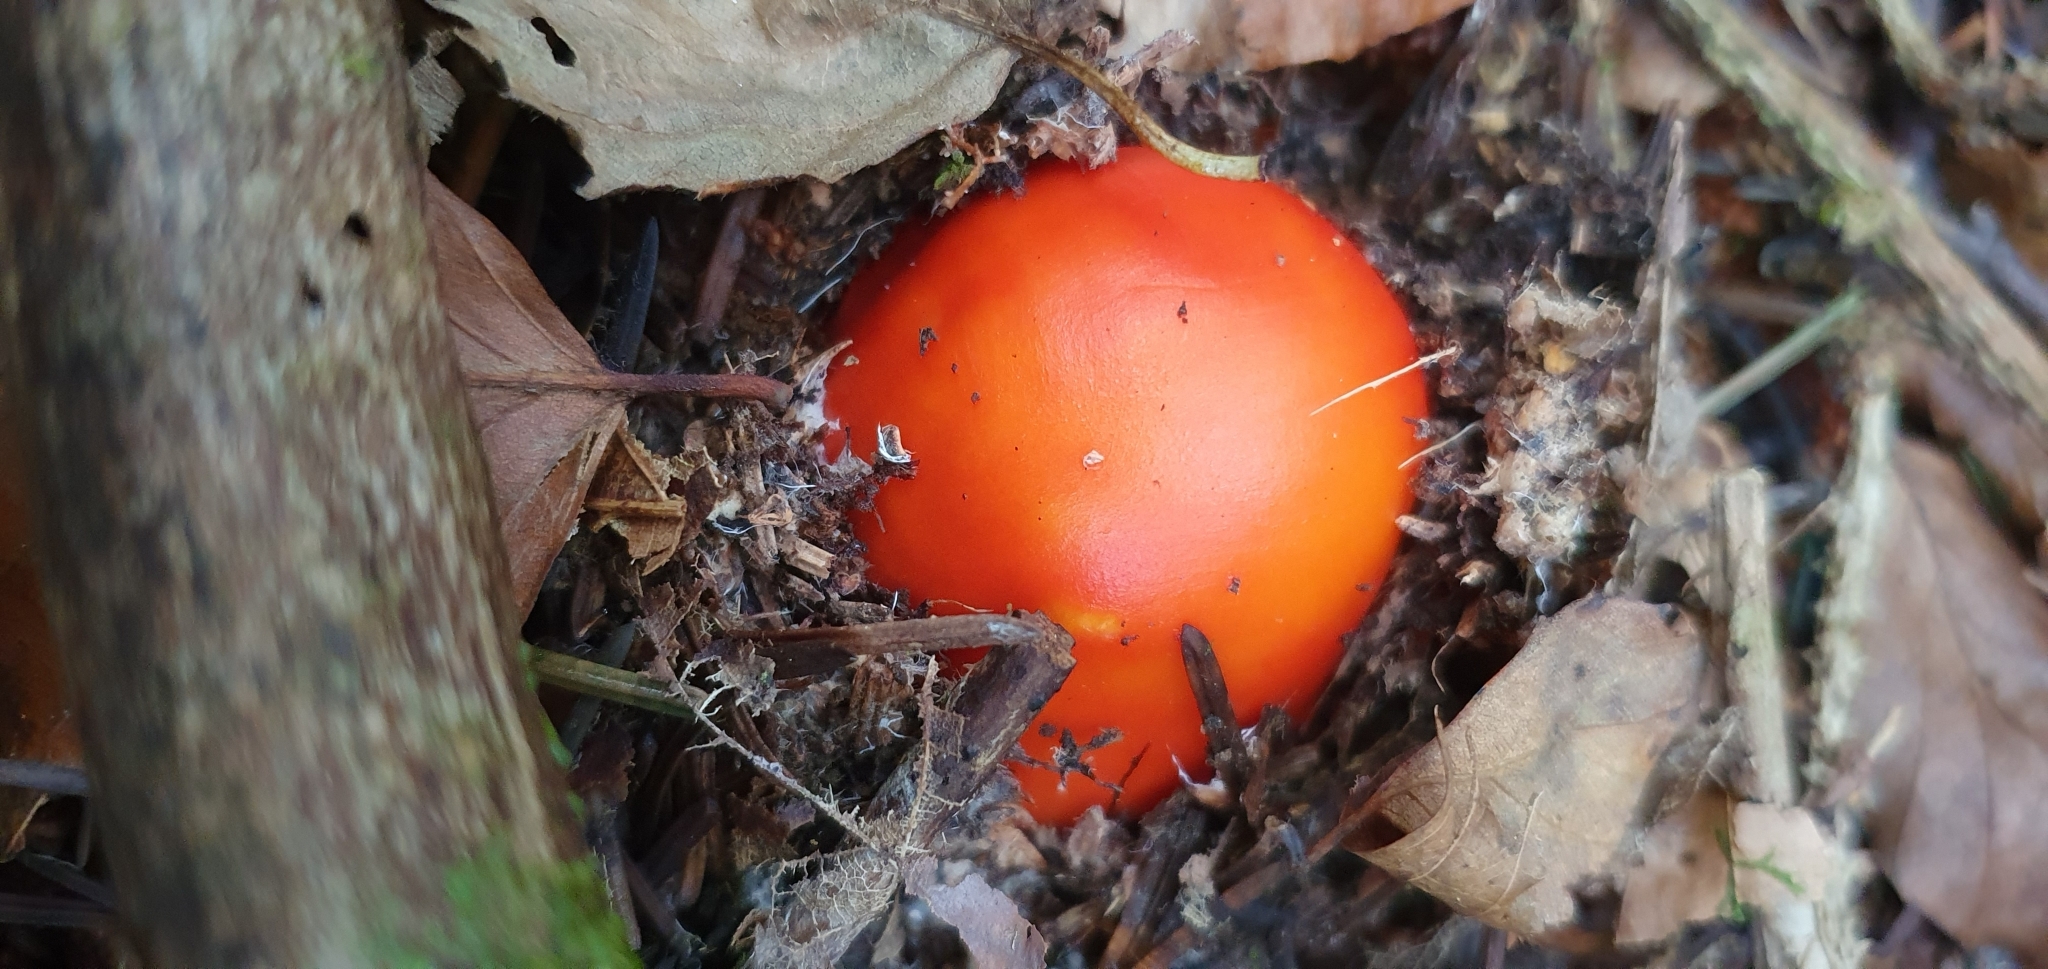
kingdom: Fungi
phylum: Basidiomycota
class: Agaricomycetes
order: Agaricales
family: Amanitaceae
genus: Amanita
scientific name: Amanita muscaria
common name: Fly agaric
